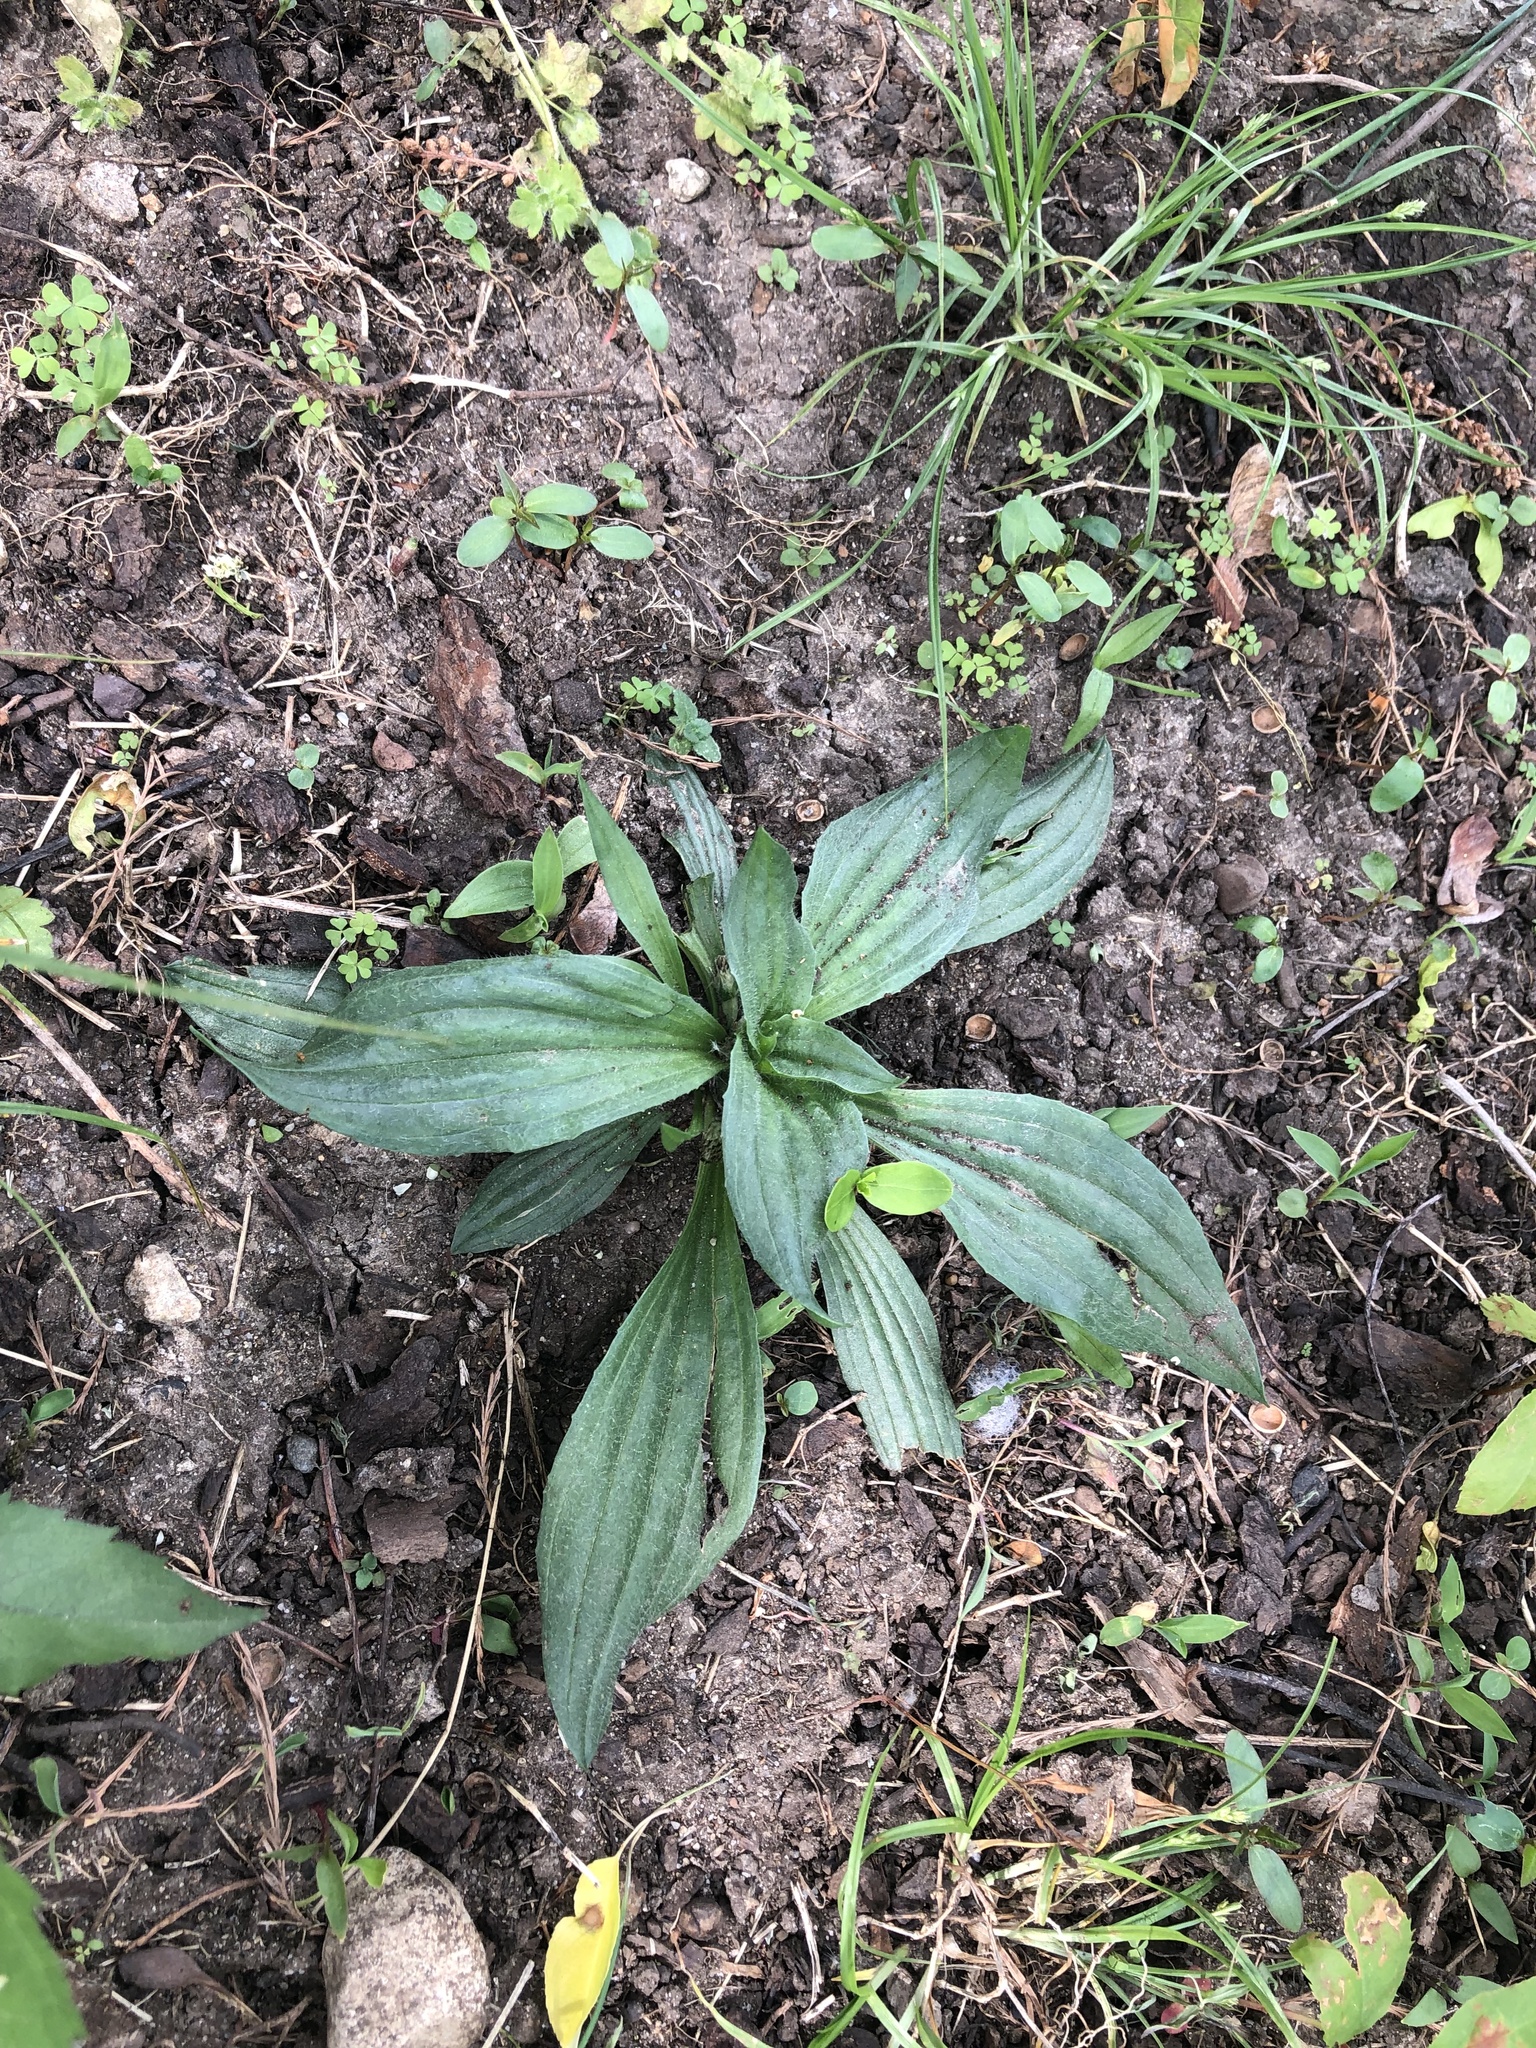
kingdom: Plantae
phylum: Tracheophyta
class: Magnoliopsida
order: Lamiales
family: Plantaginaceae
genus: Plantago
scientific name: Plantago lanceolata
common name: Ribwort plantain
